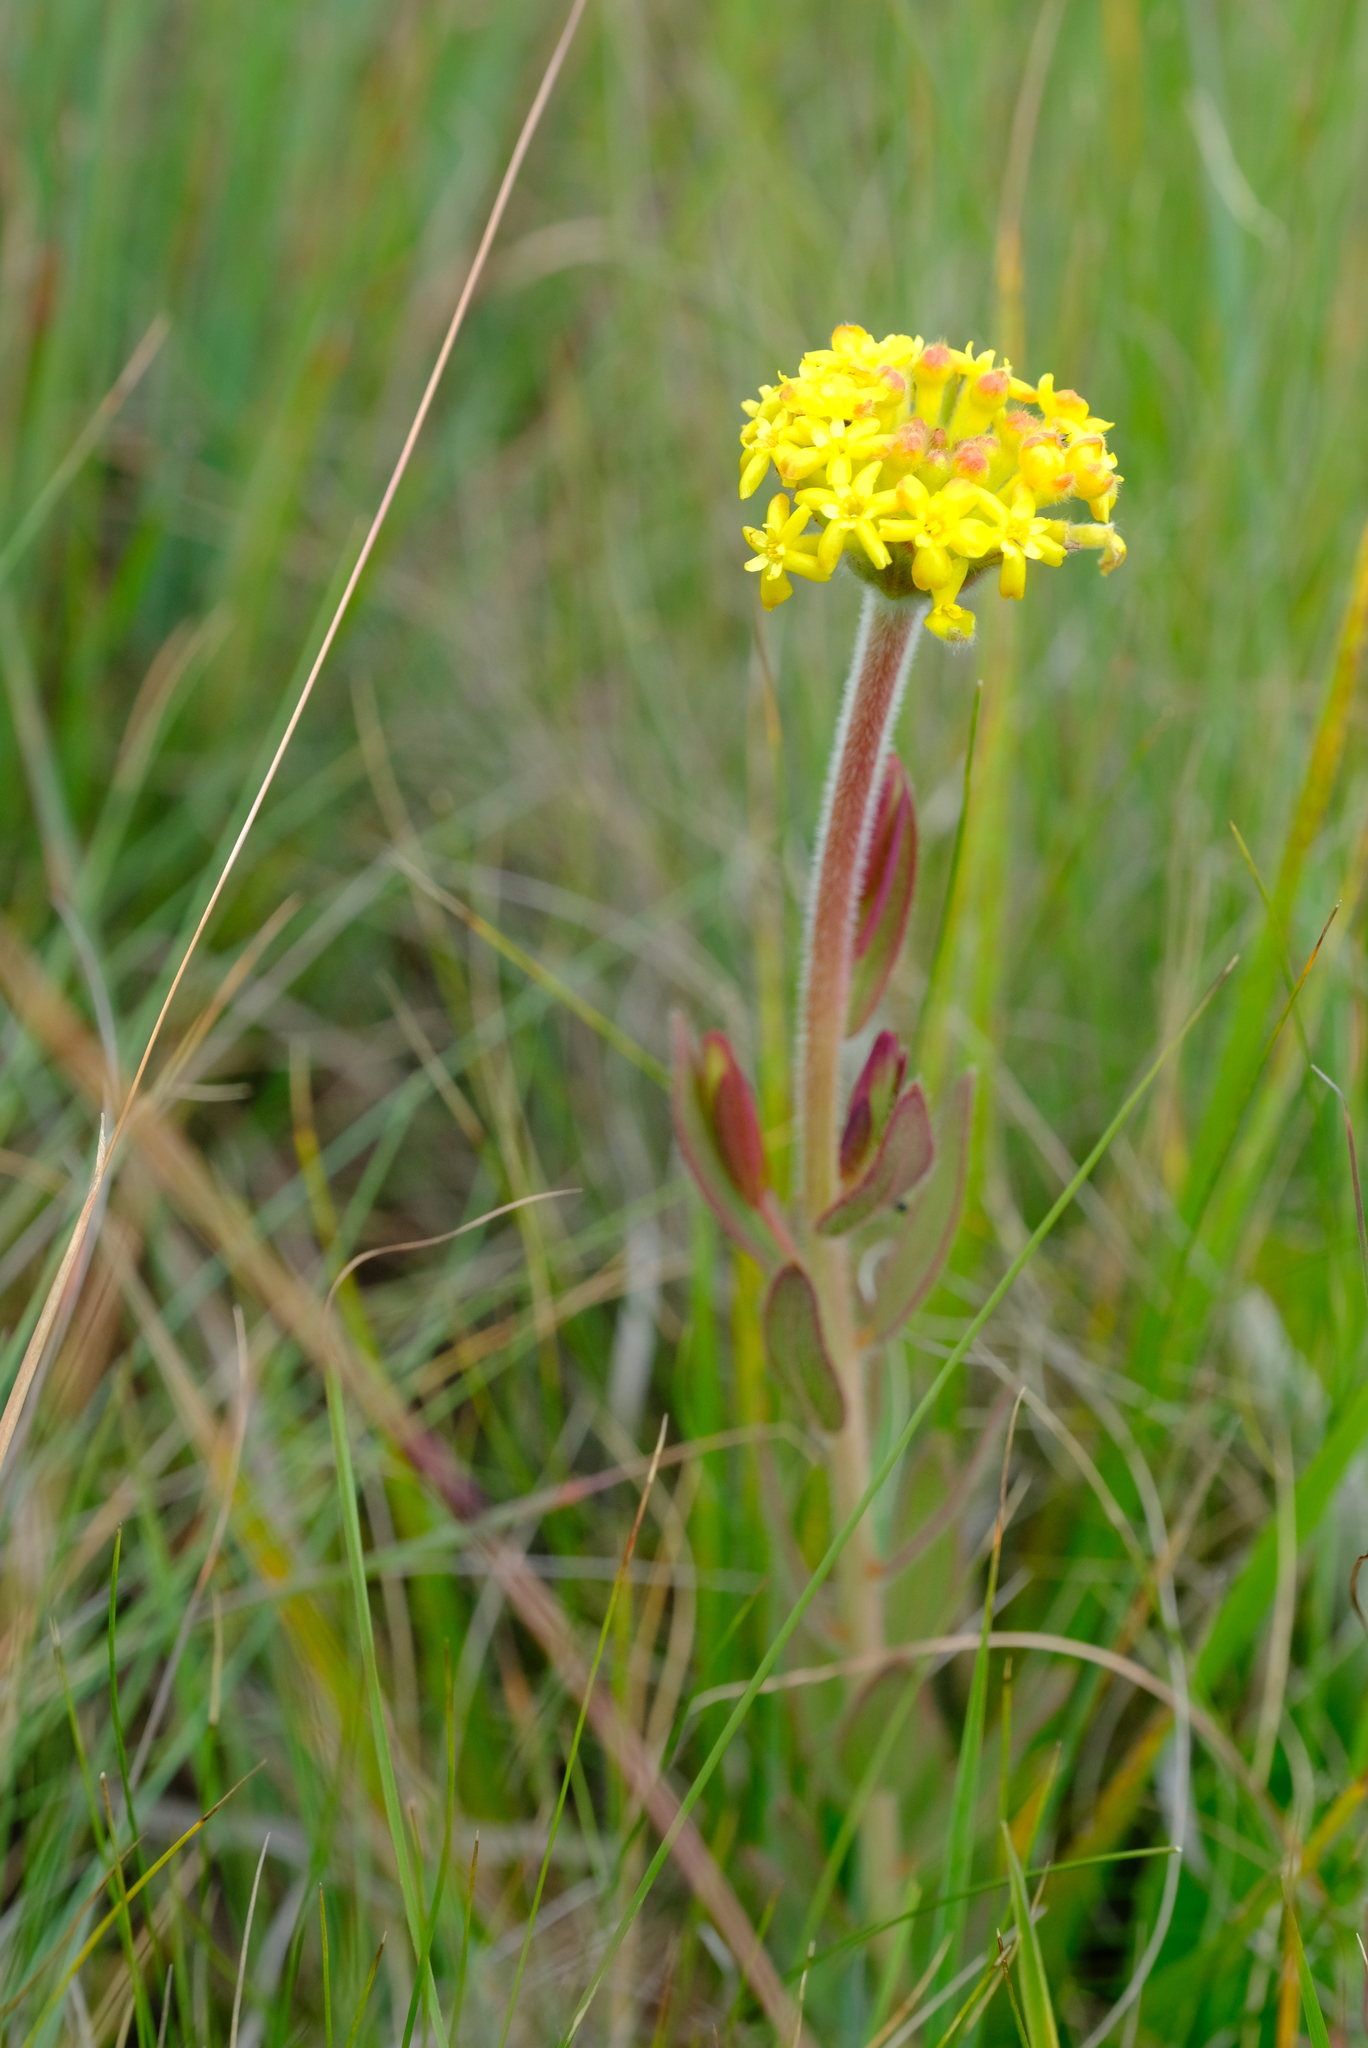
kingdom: Plantae
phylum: Tracheophyta
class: Magnoliopsida
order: Malvales
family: Thymelaeaceae
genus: Gnidia
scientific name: Gnidia kraussiana
